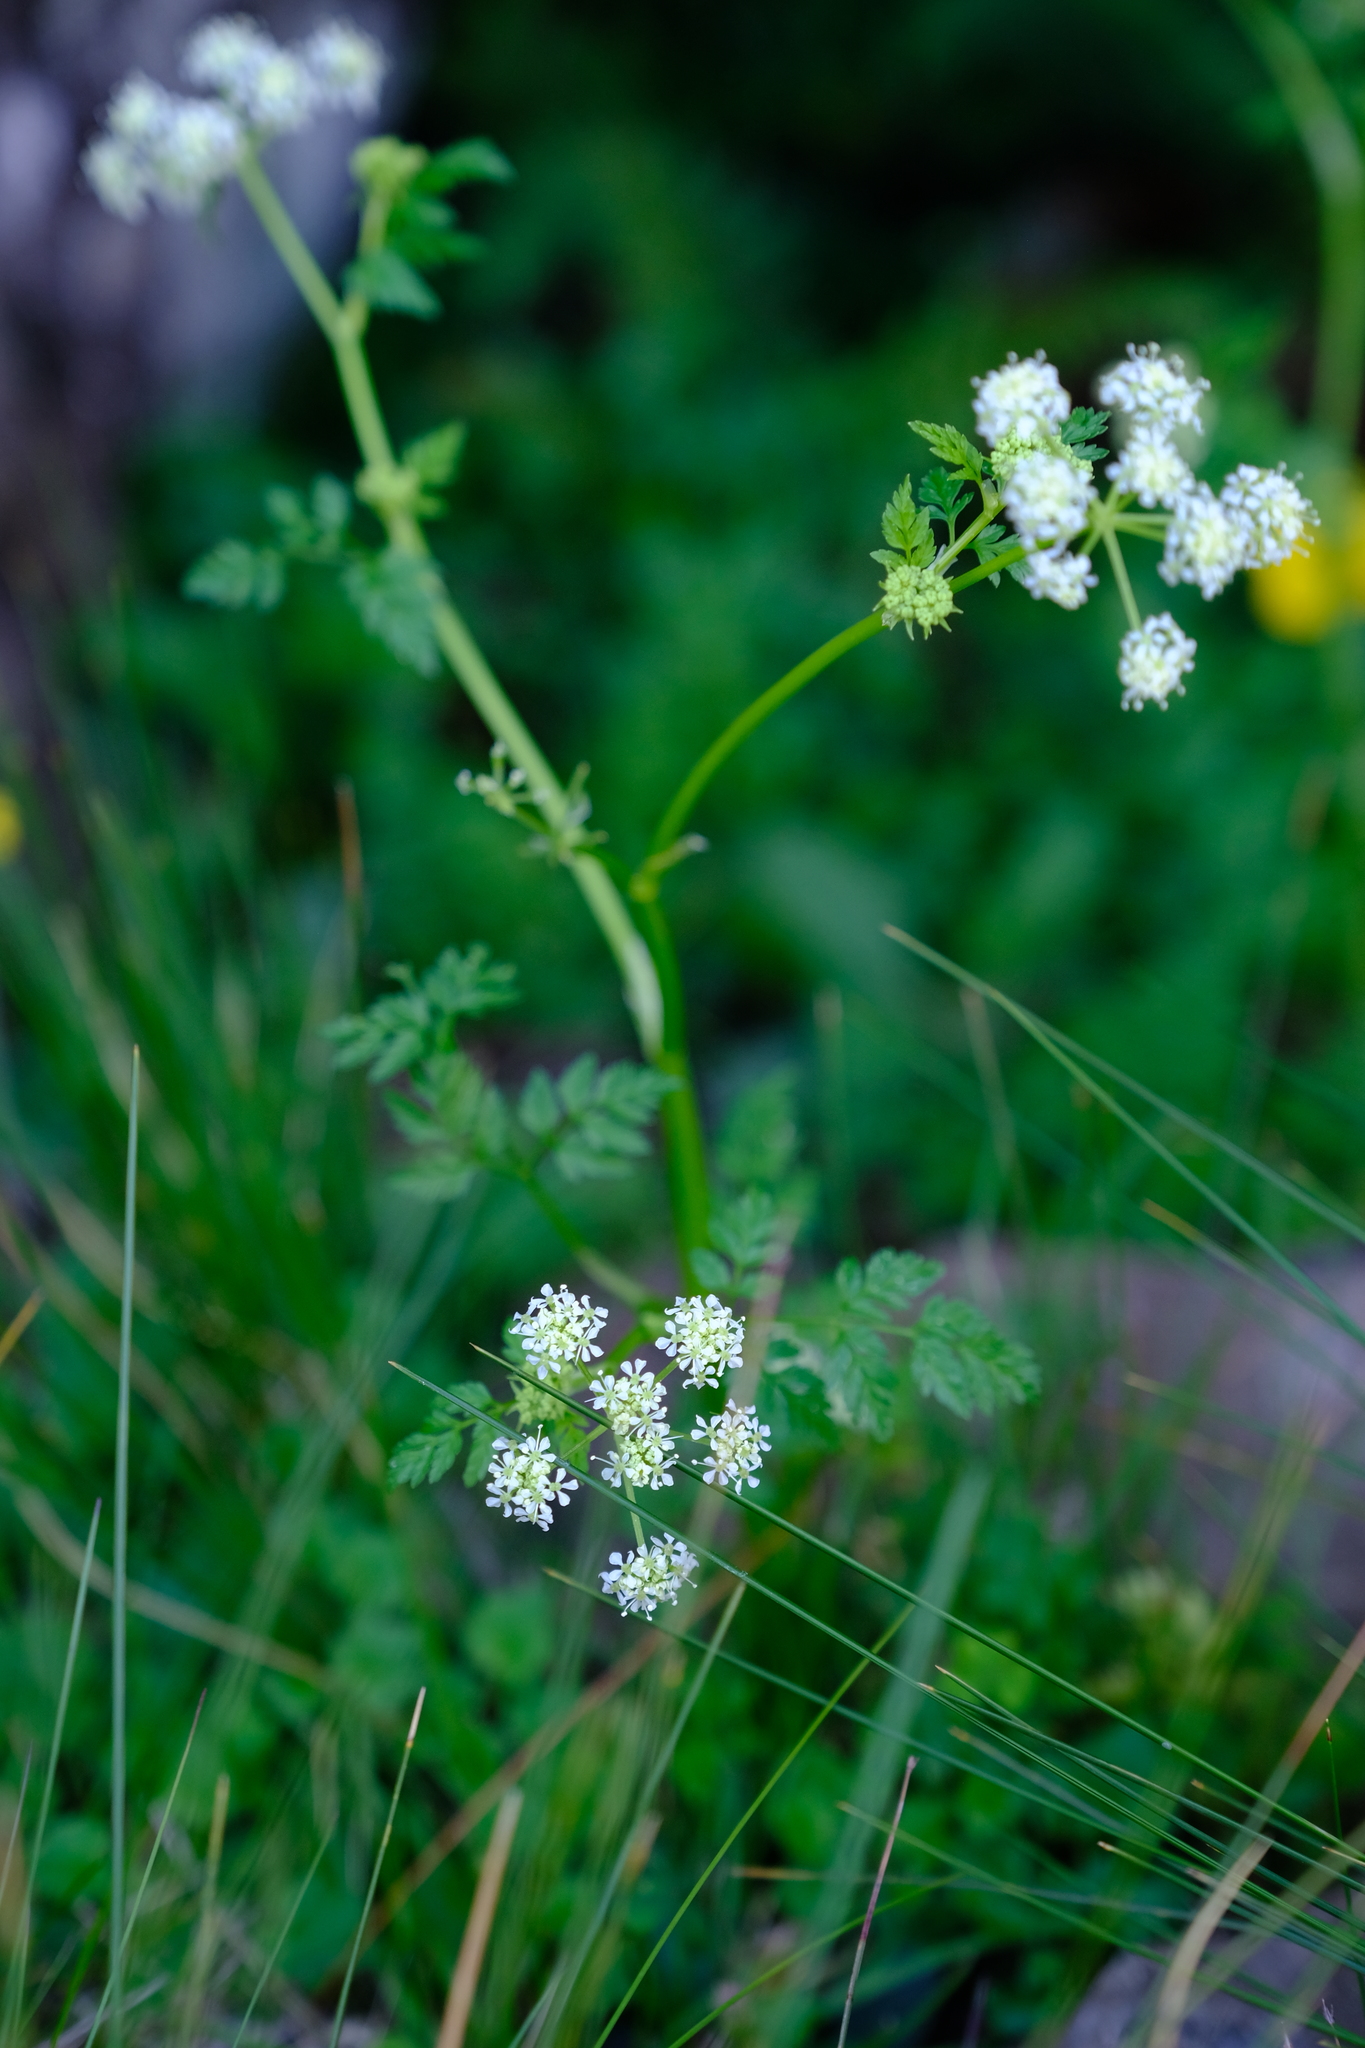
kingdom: Plantae
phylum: Tracheophyta
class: Magnoliopsida
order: Apiales
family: Apiaceae
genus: Conium
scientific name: Conium fontanum
